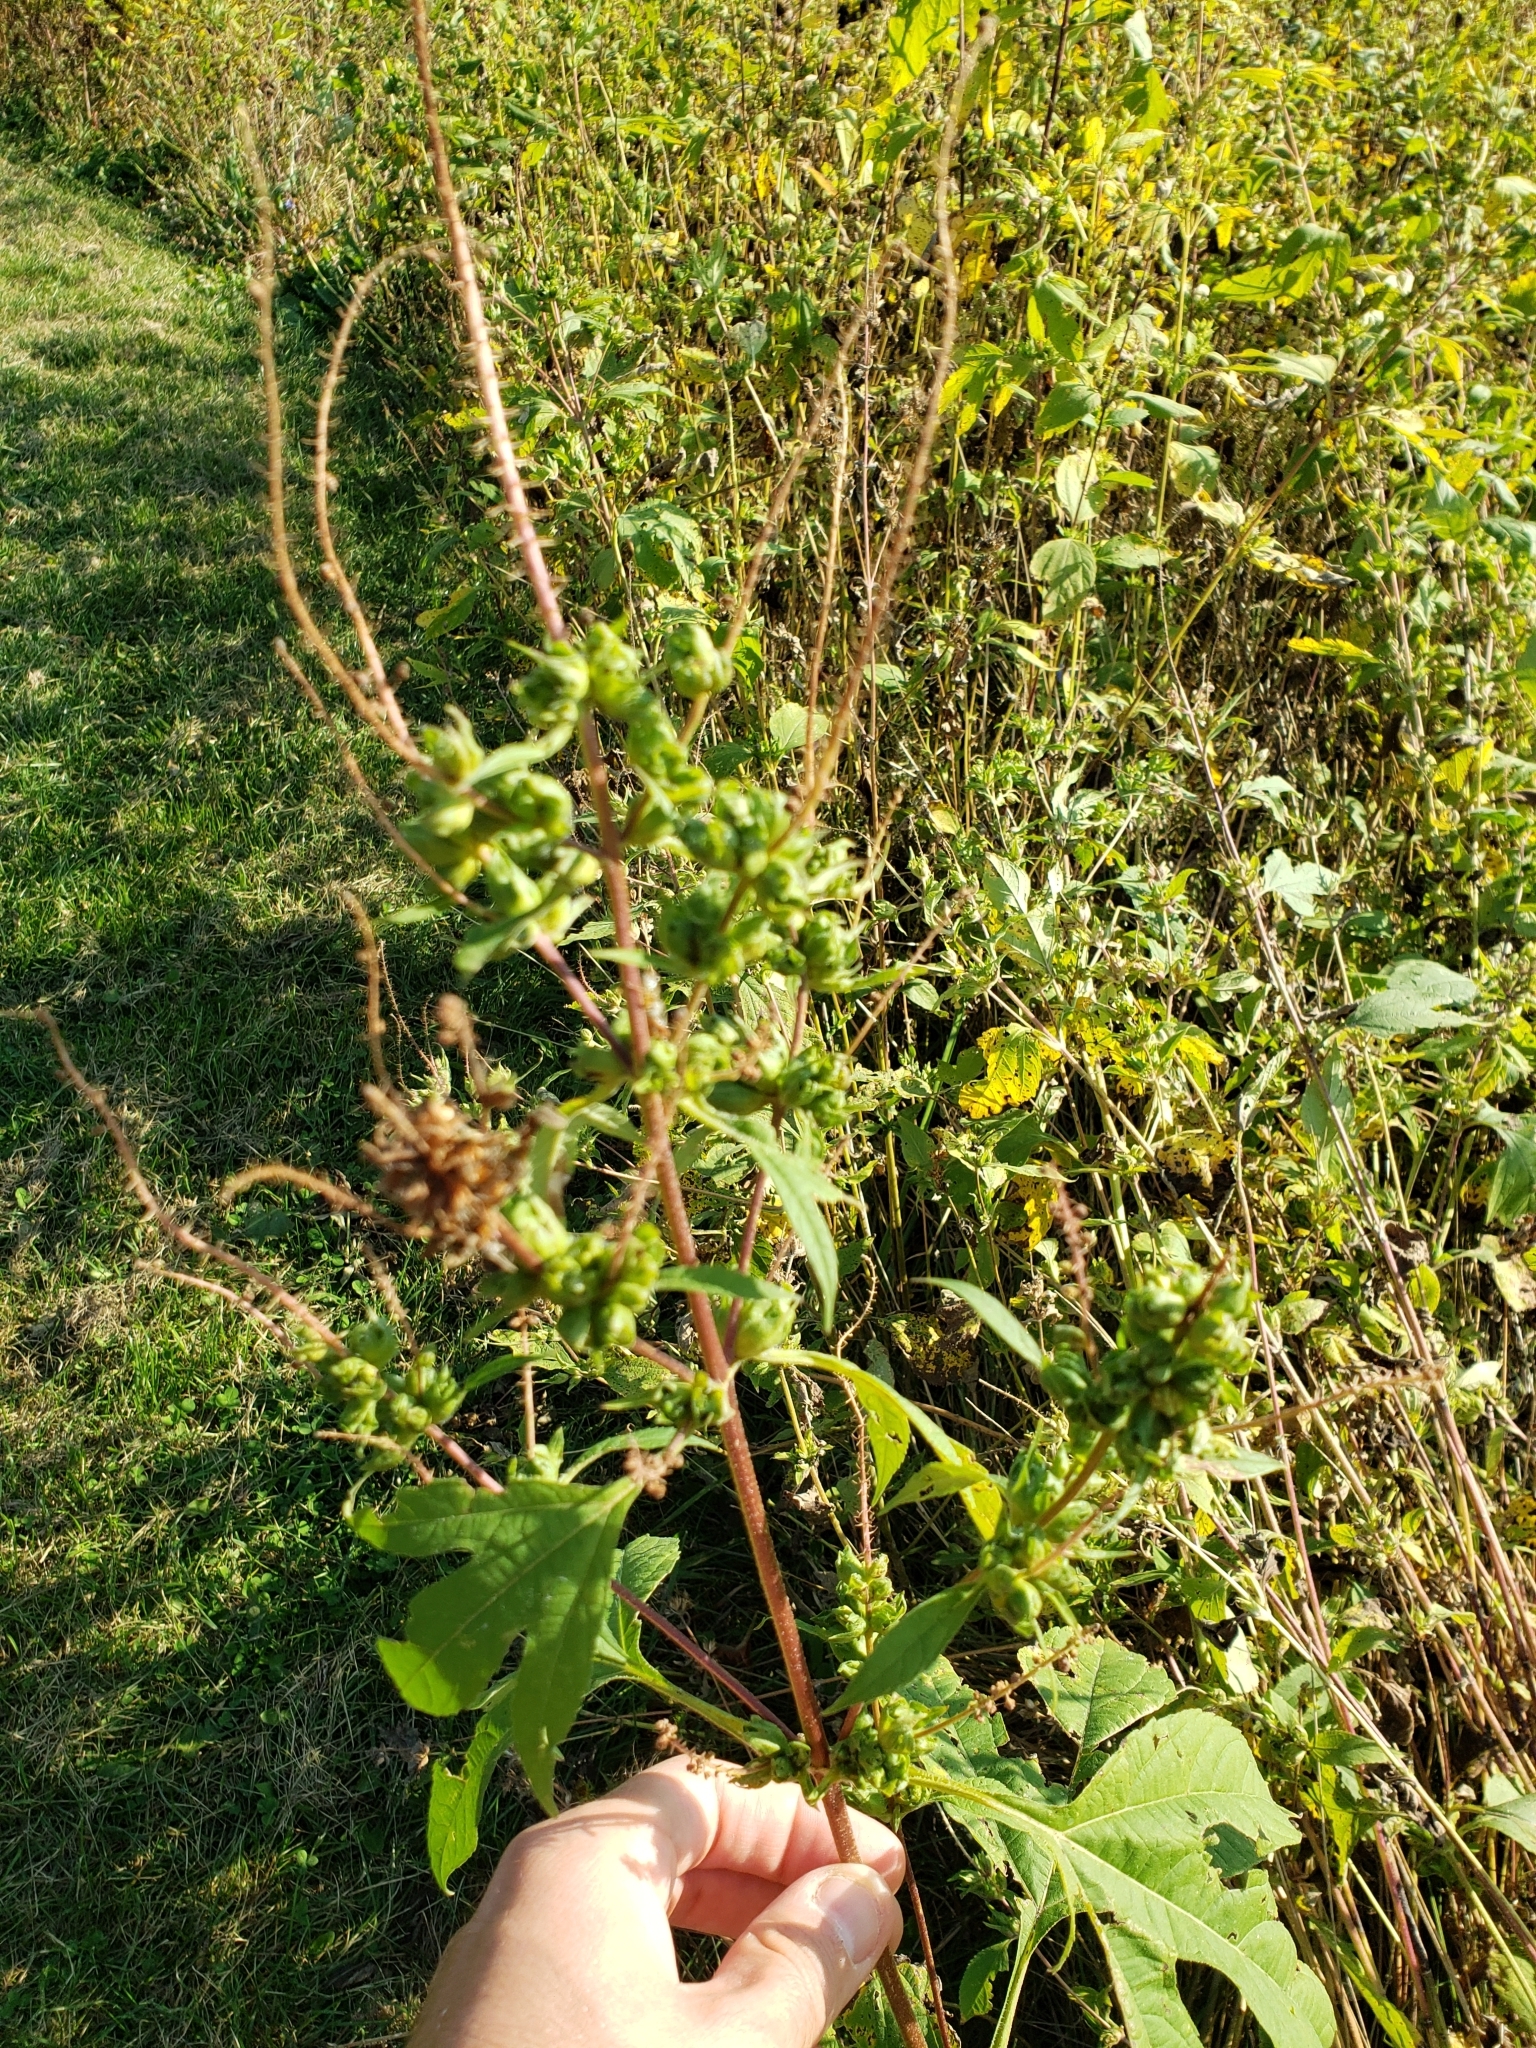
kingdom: Plantae
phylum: Tracheophyta
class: Magnoliopsida
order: Asterales
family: Asteraceae
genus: Ambrosia
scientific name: Ambrosia trifida
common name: Giant ragweed
